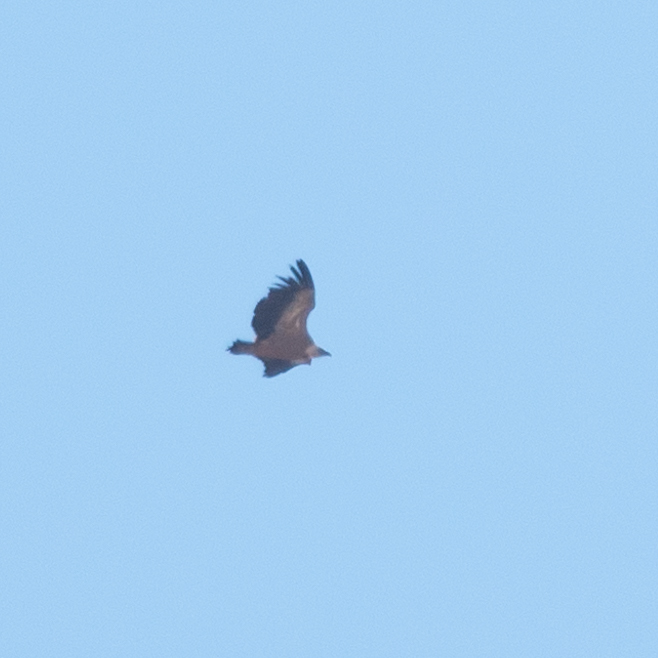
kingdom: Animalia
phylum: Chordata
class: Aves
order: Accipitriformes
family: Accipitridae
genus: Gyps
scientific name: Gyps fulvus
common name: Griffon vulture
